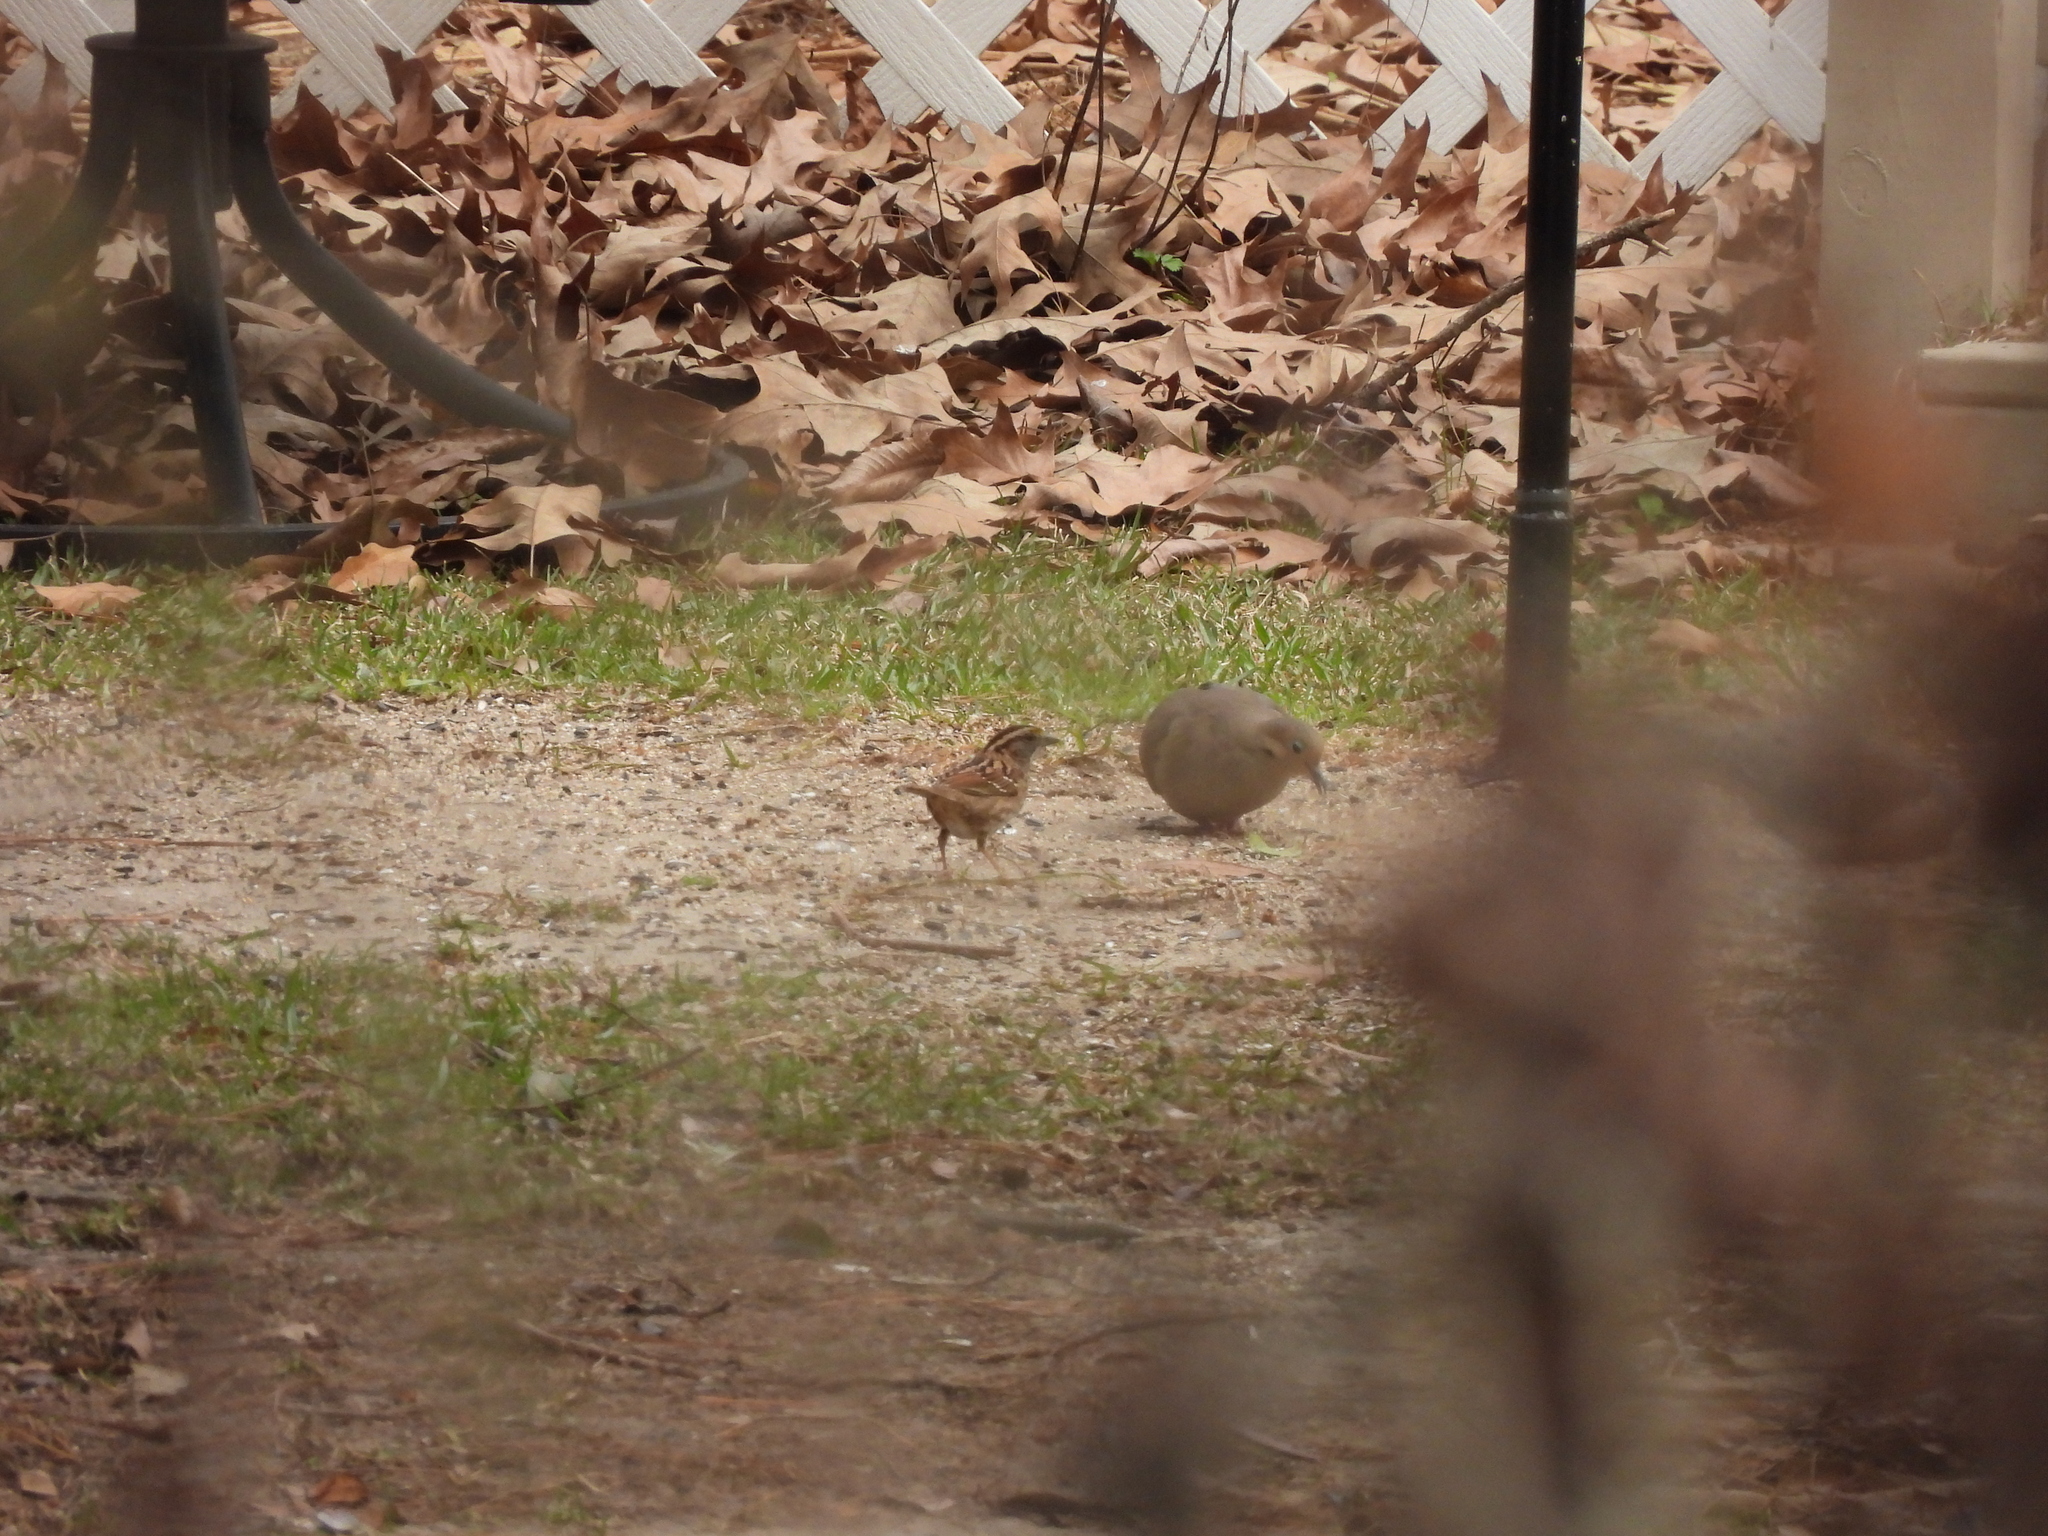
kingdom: Animalia
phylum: Chordata
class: Aves
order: Columbiformes
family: Columbidae
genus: Zenaida
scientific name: Zenaida macroura
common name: Mourning dove
